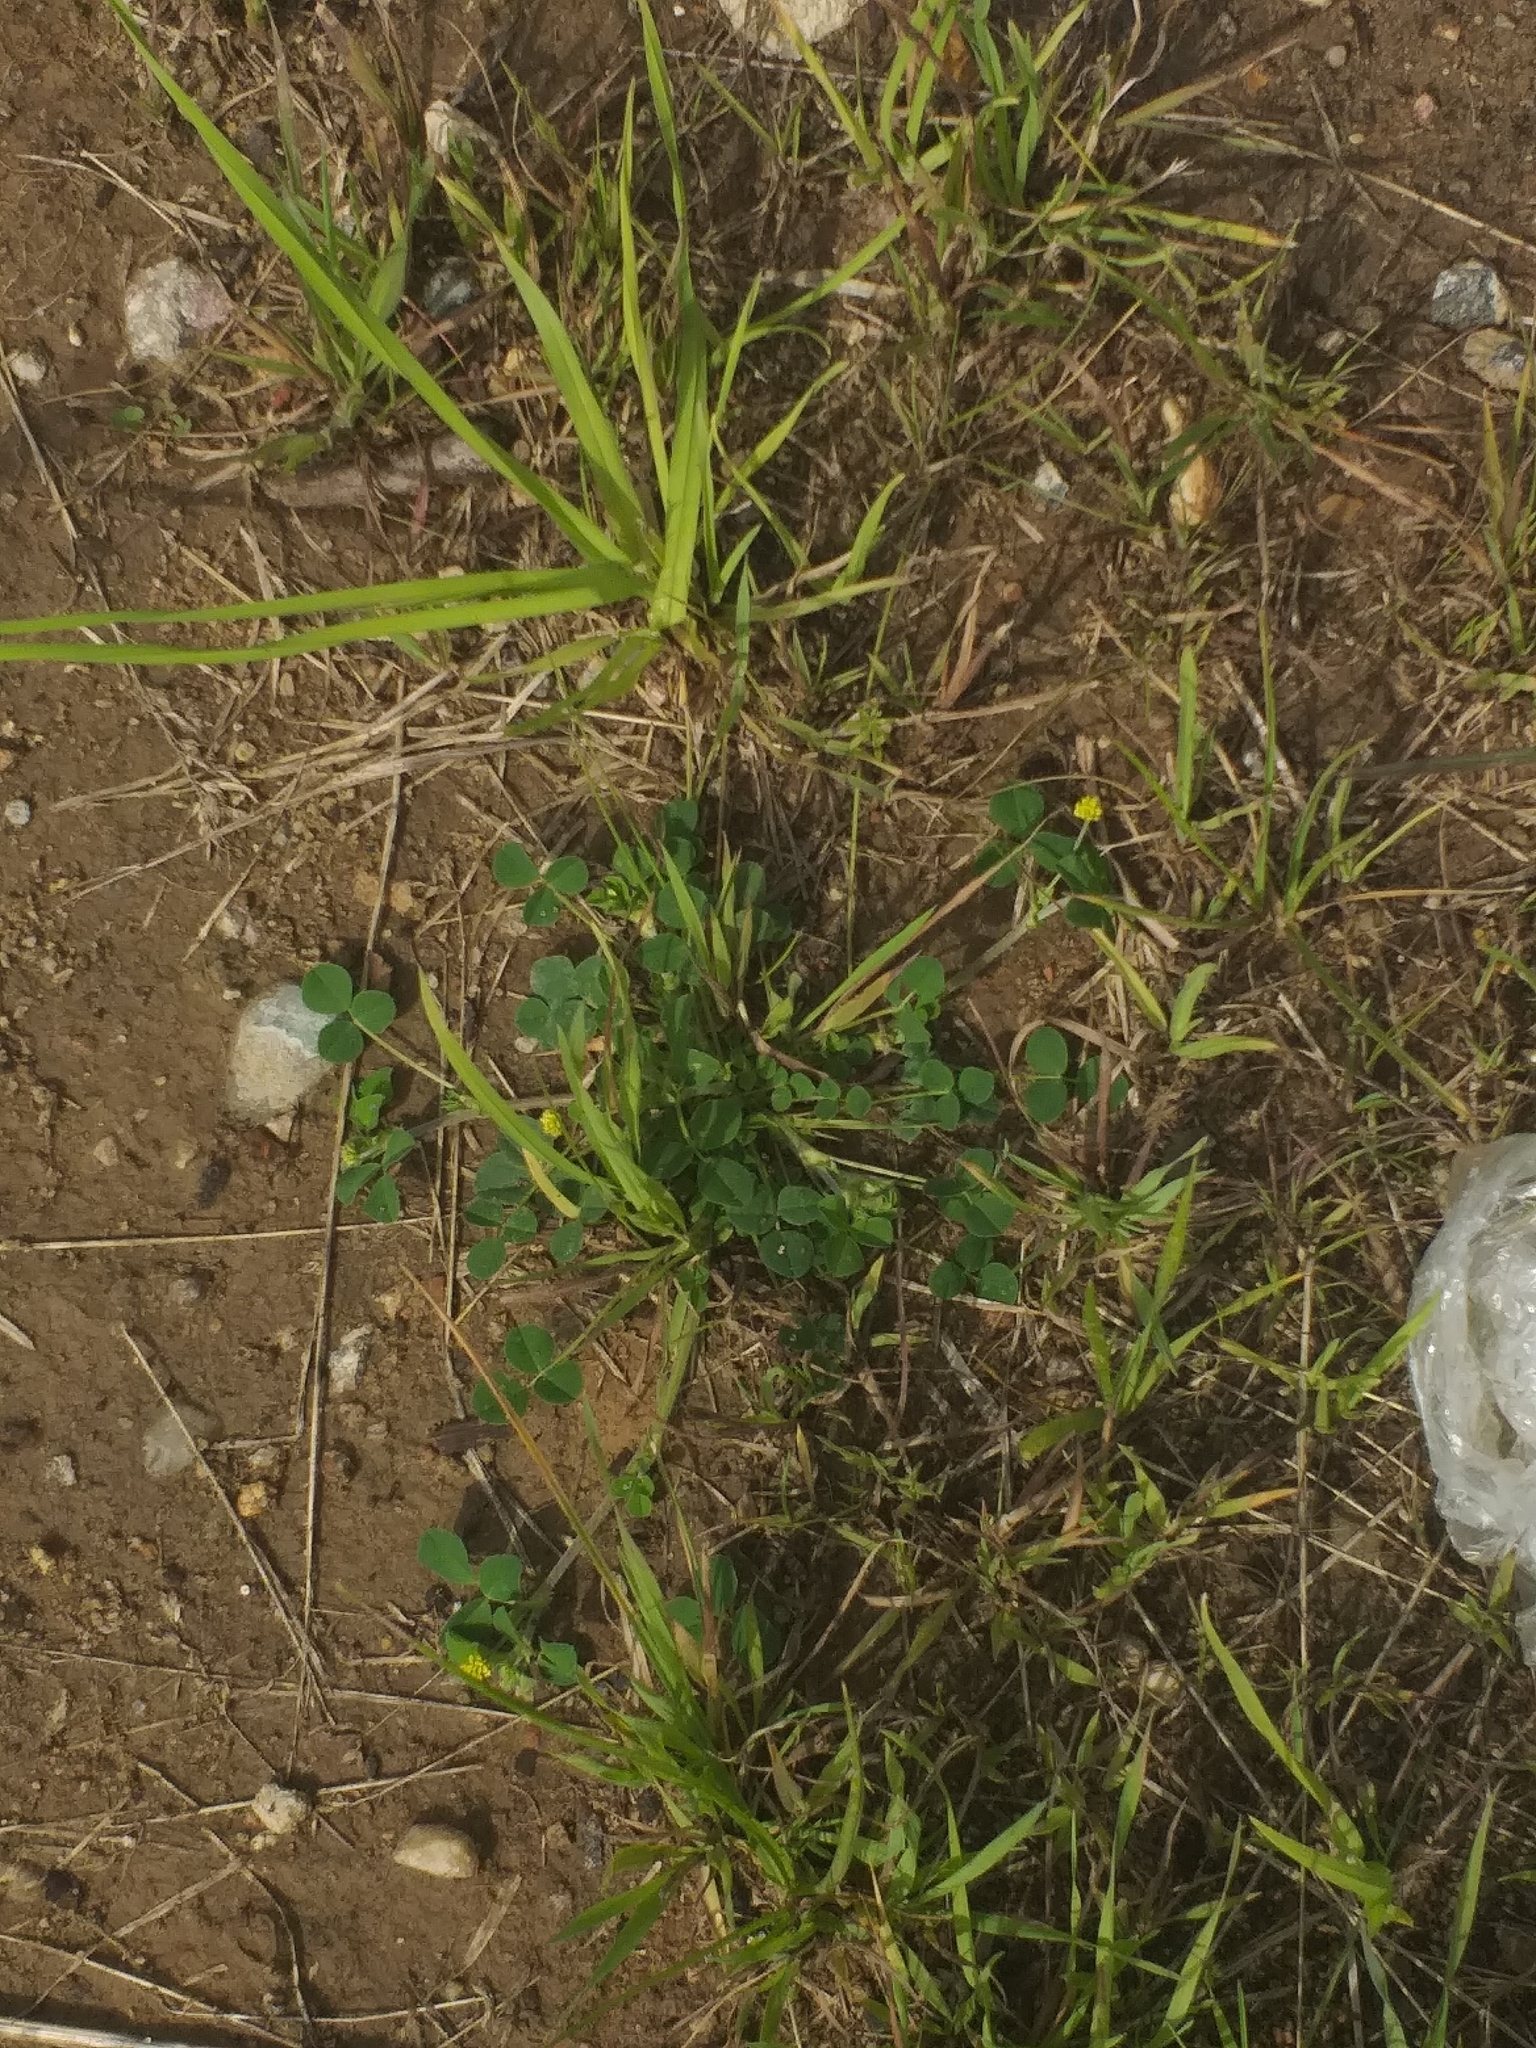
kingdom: Plantae
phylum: Tracheophyta
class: Magnoliopsida
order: Fabales
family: Fabaceae
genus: Medicago
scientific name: Medicago lupulina
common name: Black medick
